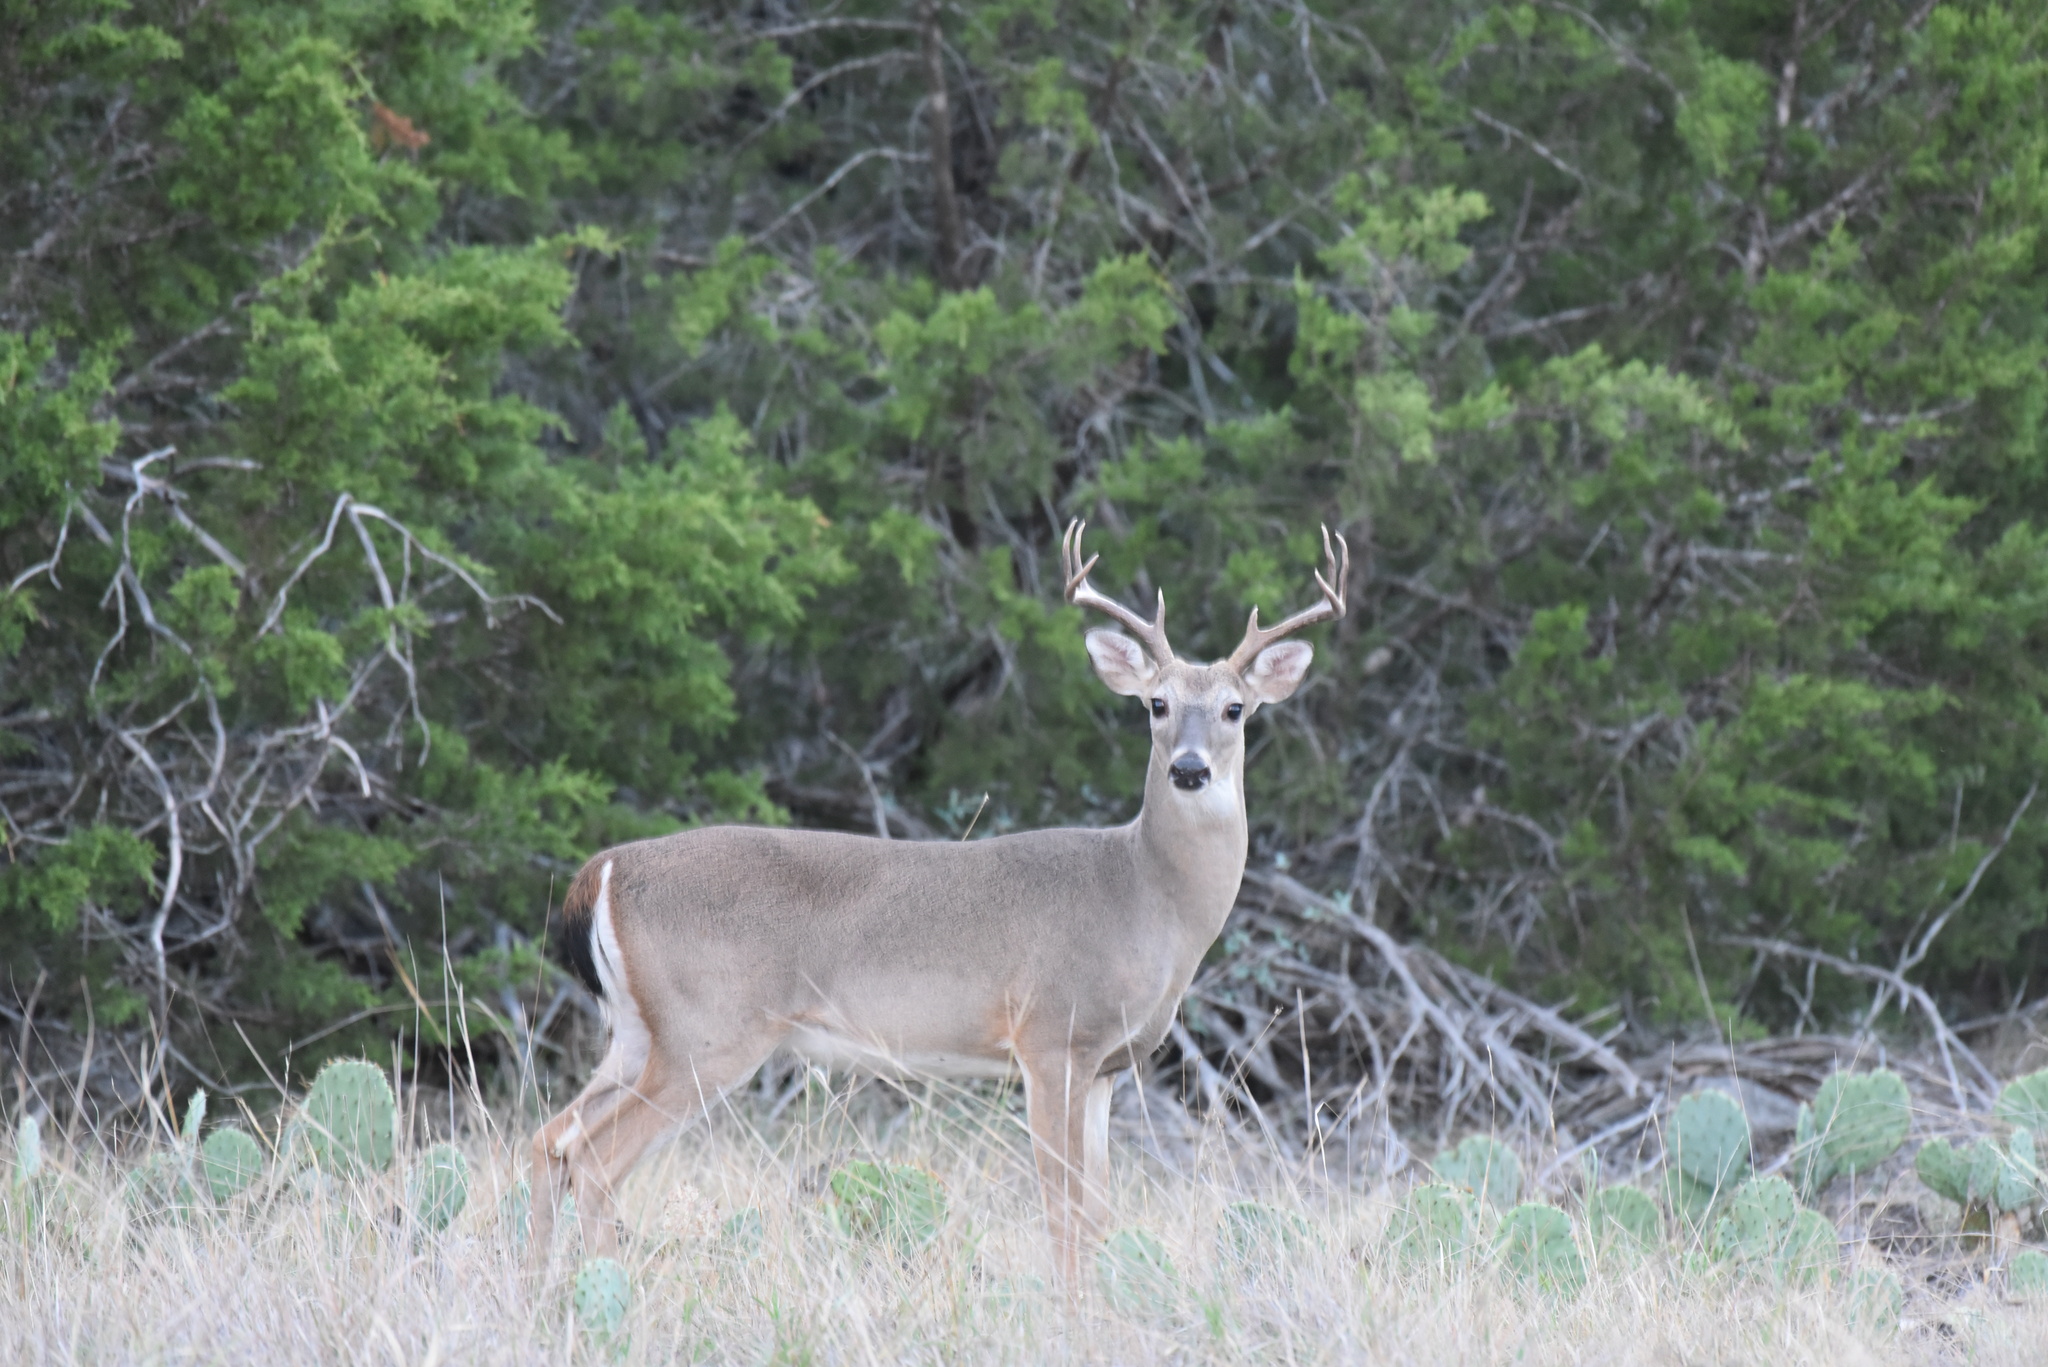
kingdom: Animalia
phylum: Chordata
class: Mammalia
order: Artiodactyla
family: Cervidae
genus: Odocoileus
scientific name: Odocoileus virginianus
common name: White-tailed deer
